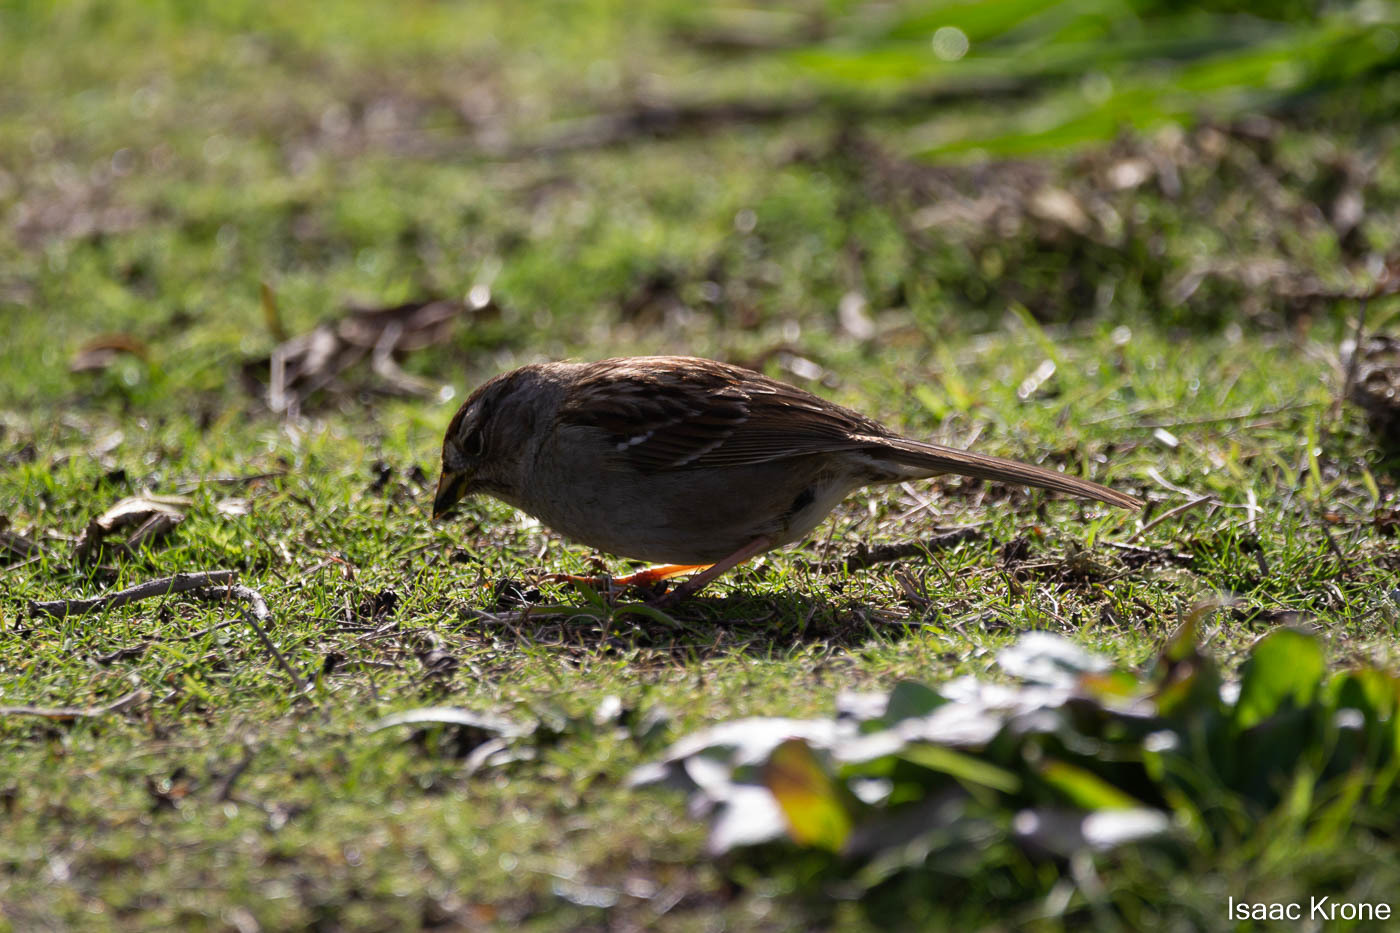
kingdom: Animalia
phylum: Chordata
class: Aves
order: Passeriformes
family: Passerellidae
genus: Zonotrichia
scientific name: Zonotrichia leucophrys
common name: White-crowned sparrow
